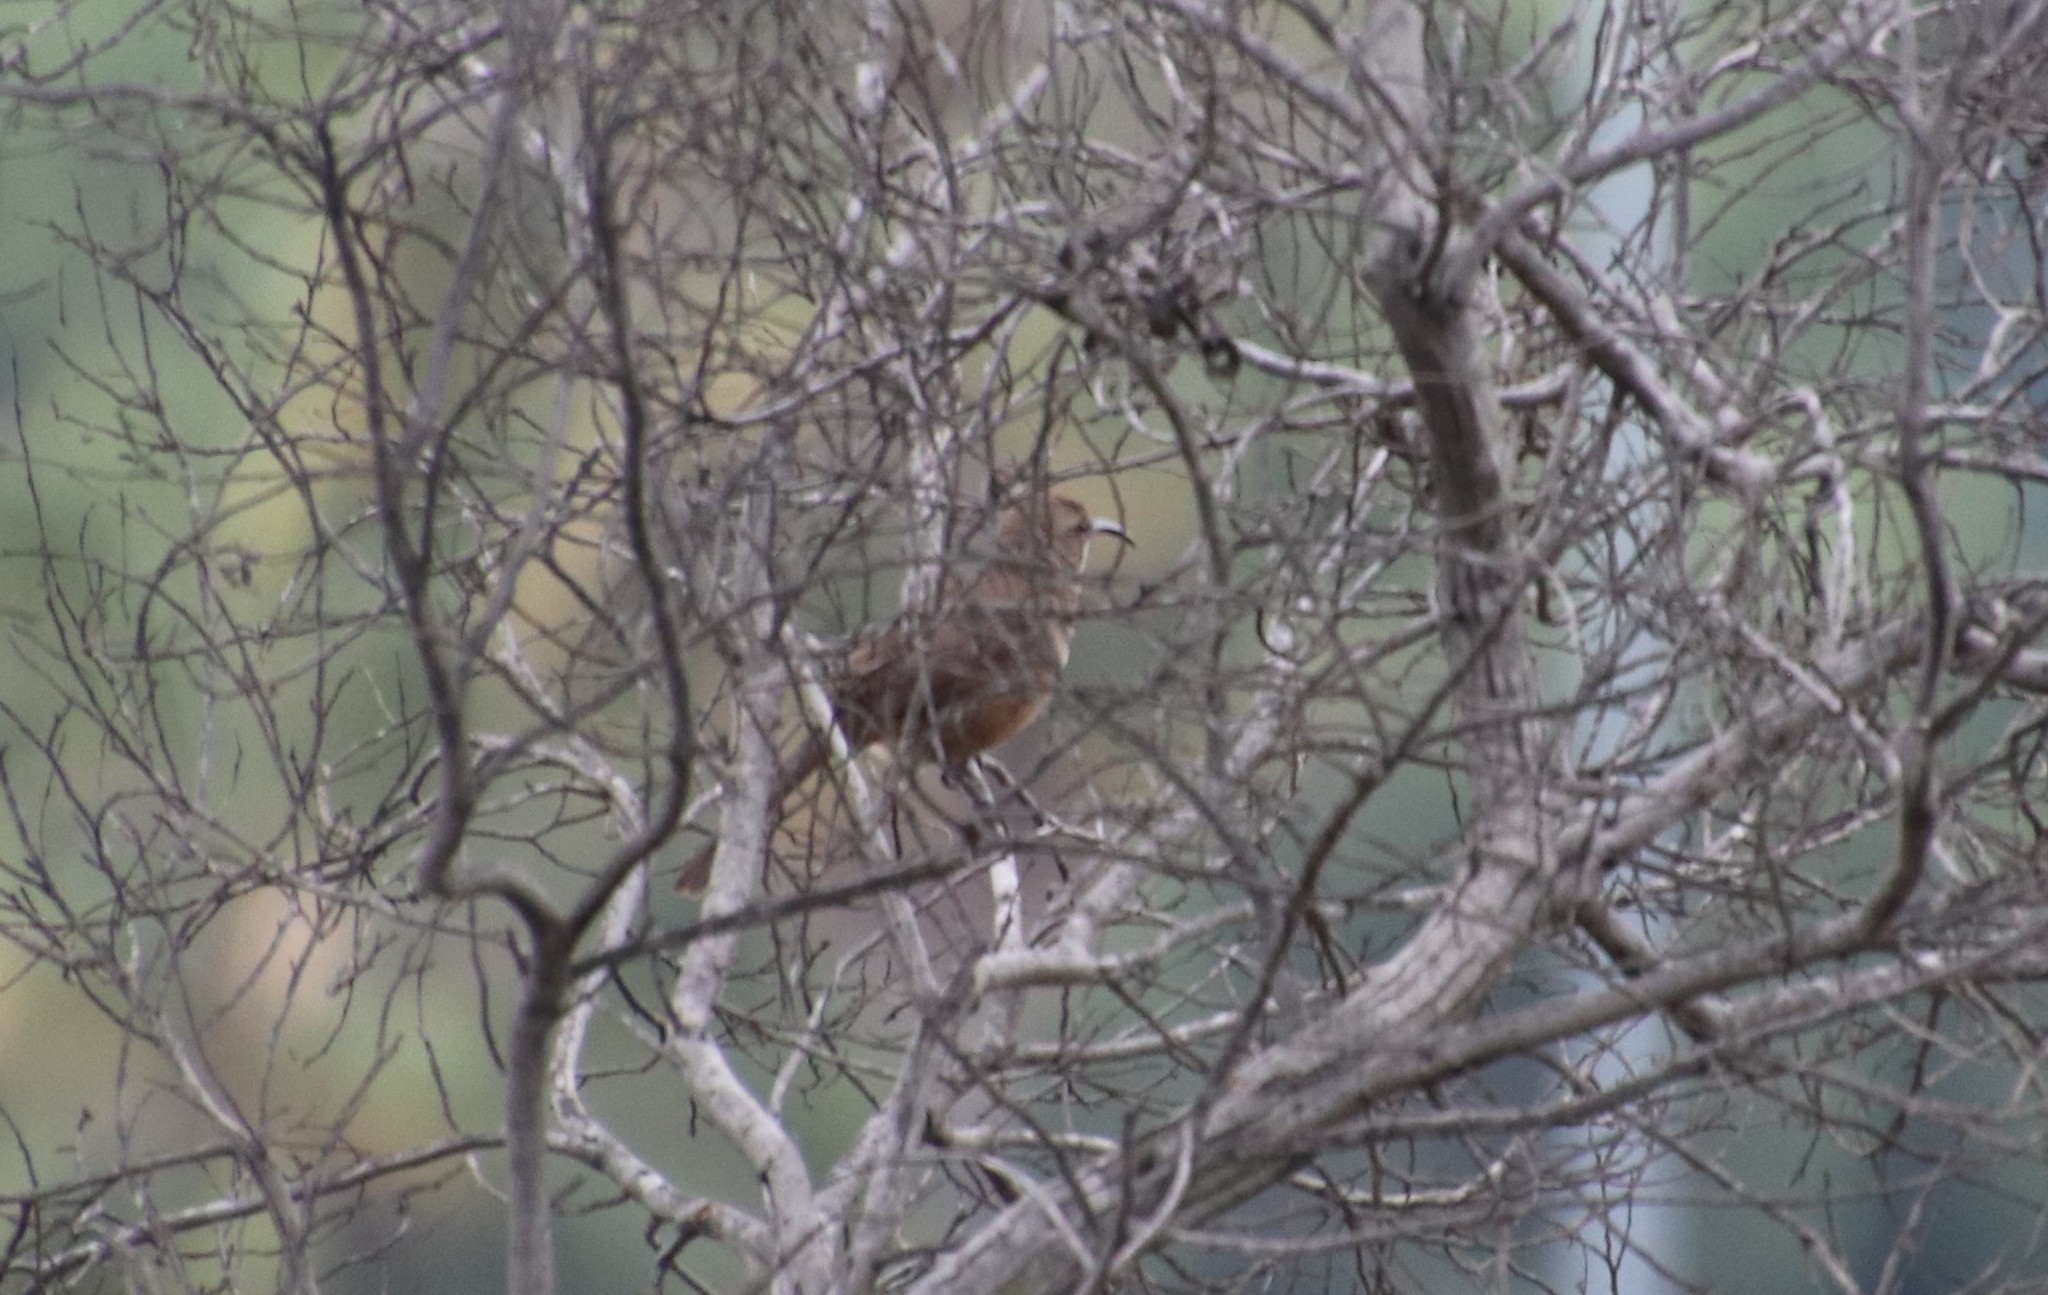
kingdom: Animalia
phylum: Chordata
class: Aves
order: Passeriformes
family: Mimidae
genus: Toxostoma
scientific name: Toxostoma redivivum
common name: California thrasher
